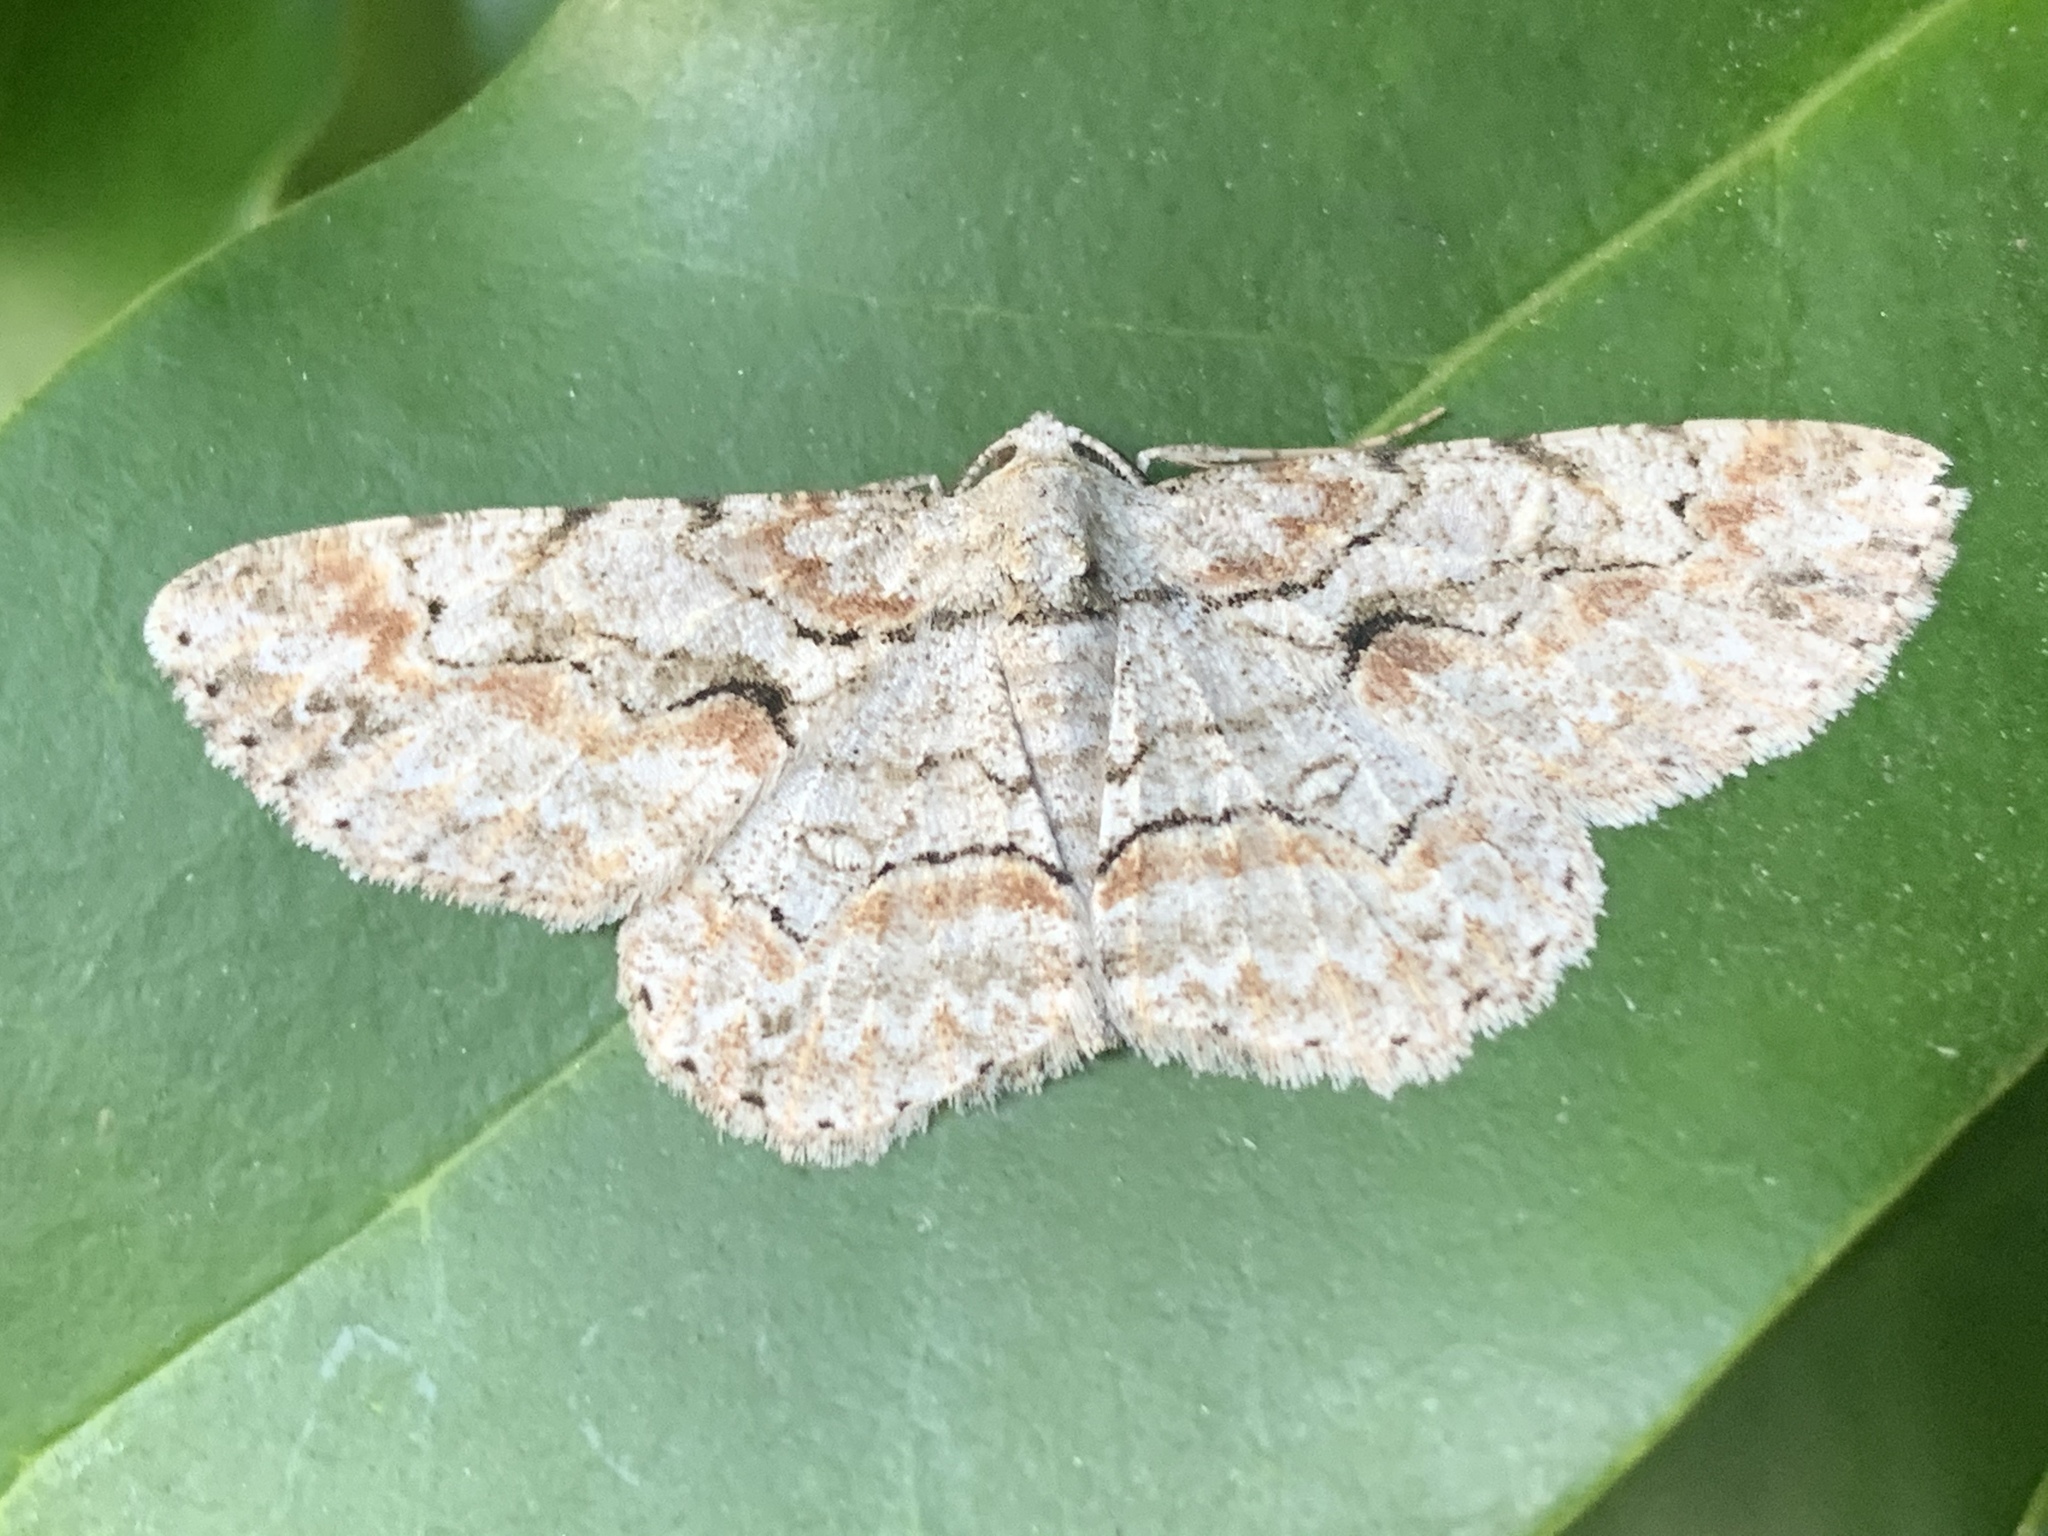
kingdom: Animalia
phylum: Arthropoda
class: Insecta
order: Lepidoptera
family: Geometridae
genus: Iridopsis
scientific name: Iridopsis defectaria
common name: Brown-shaded gray
